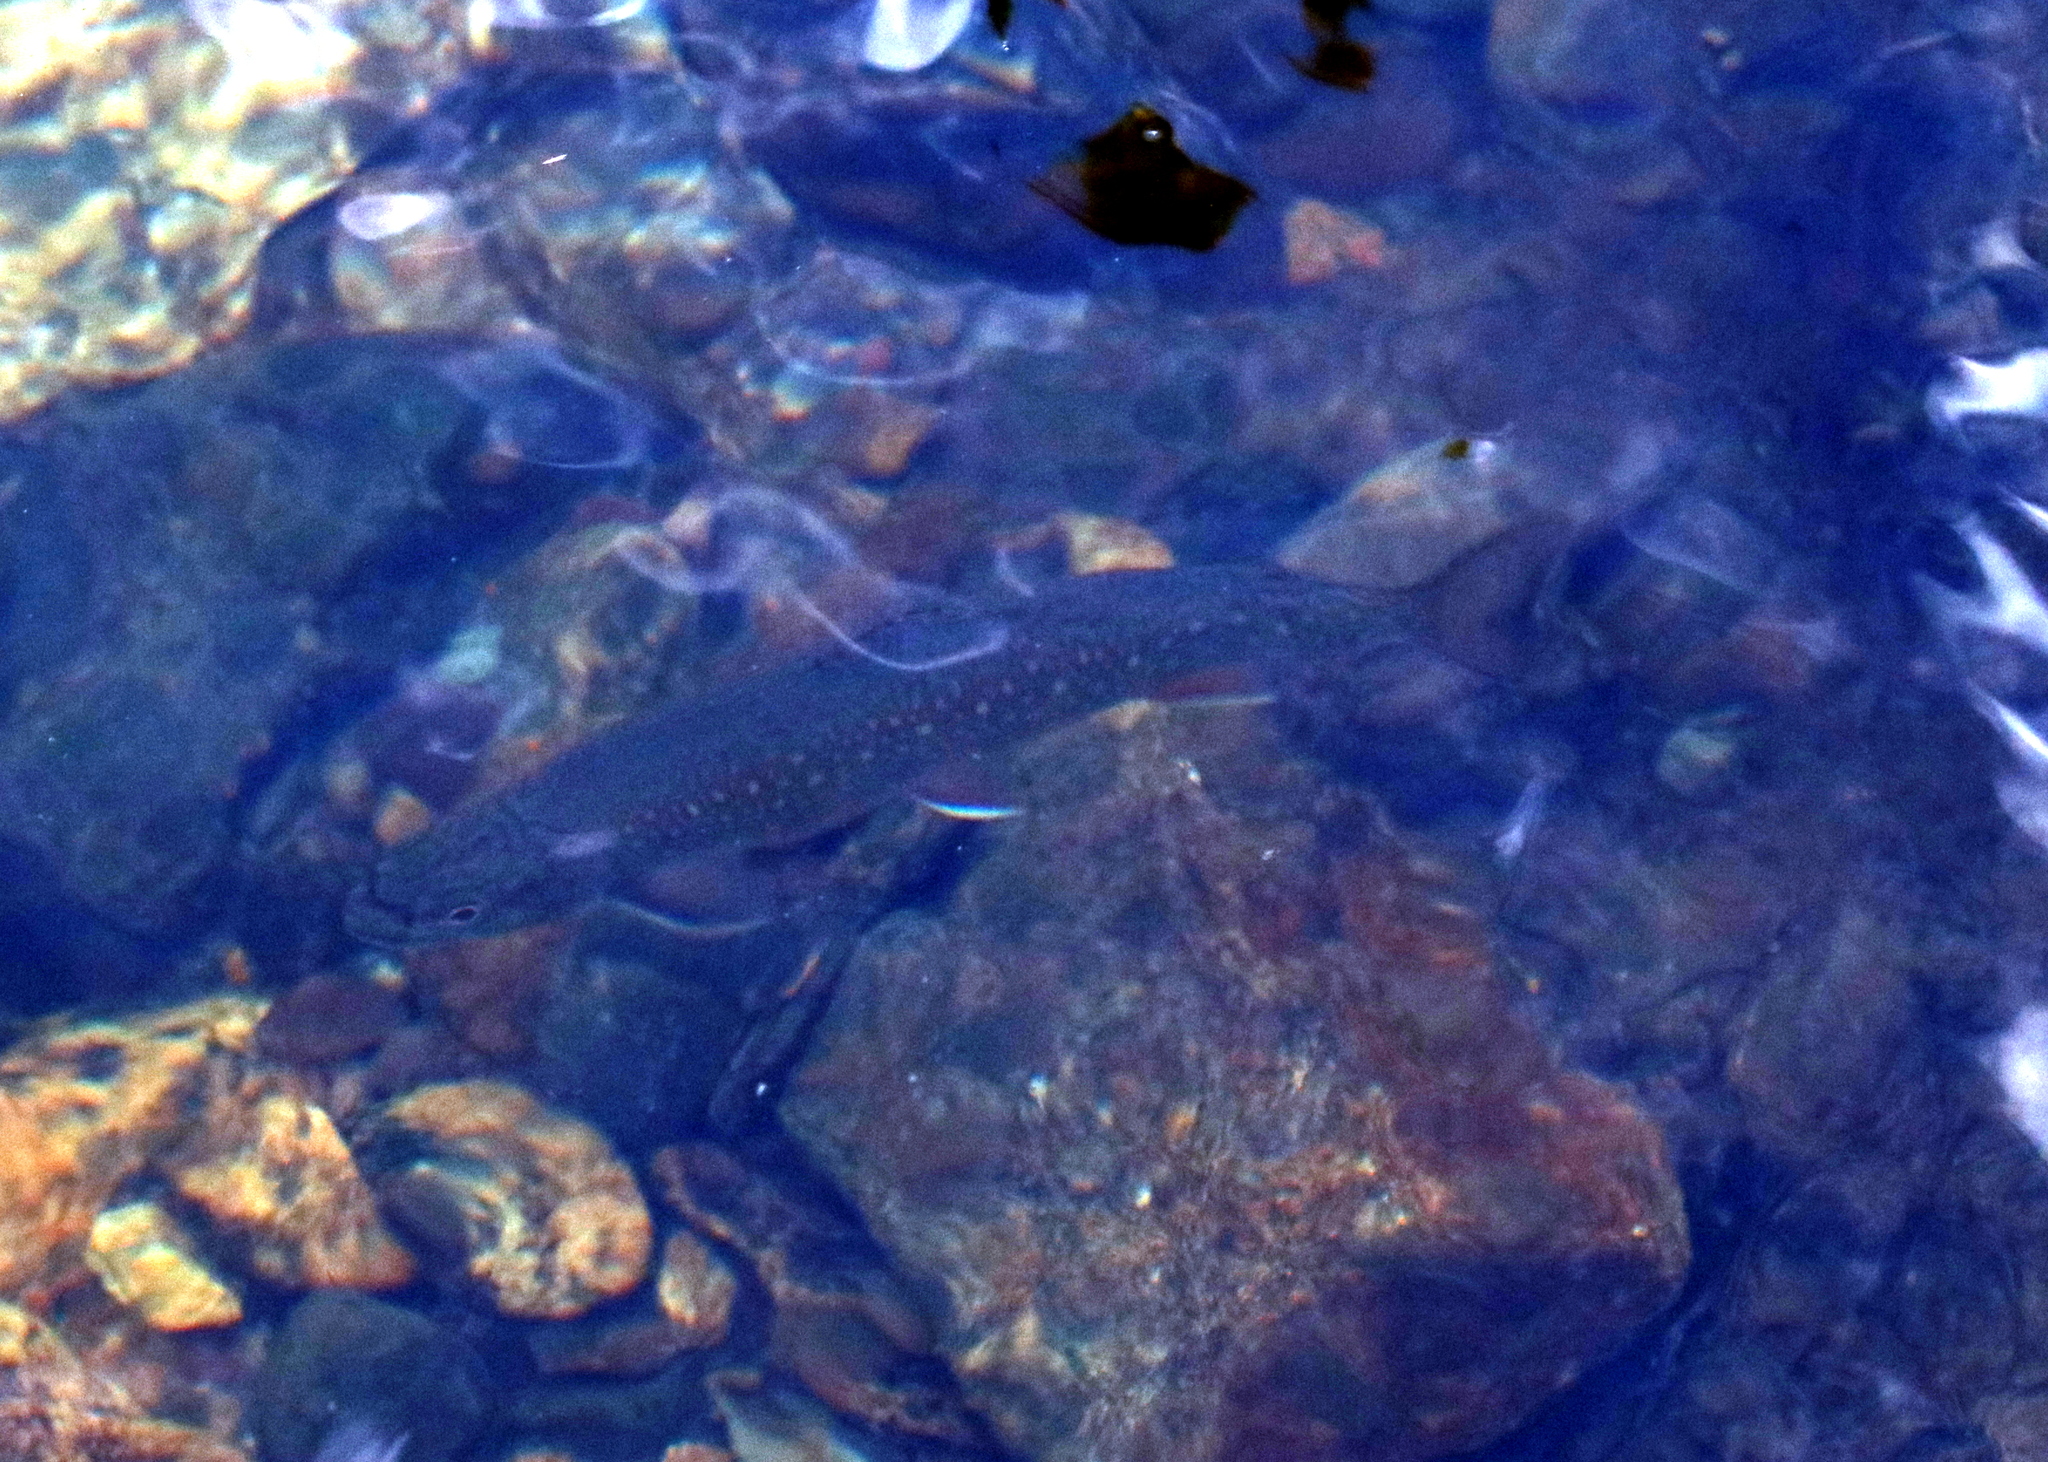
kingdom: Animalia
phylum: Chordata
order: Salmoniformes
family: Salmonidae
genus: Salvelinus
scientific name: Salvelinus fontinalis
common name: Brook trout
